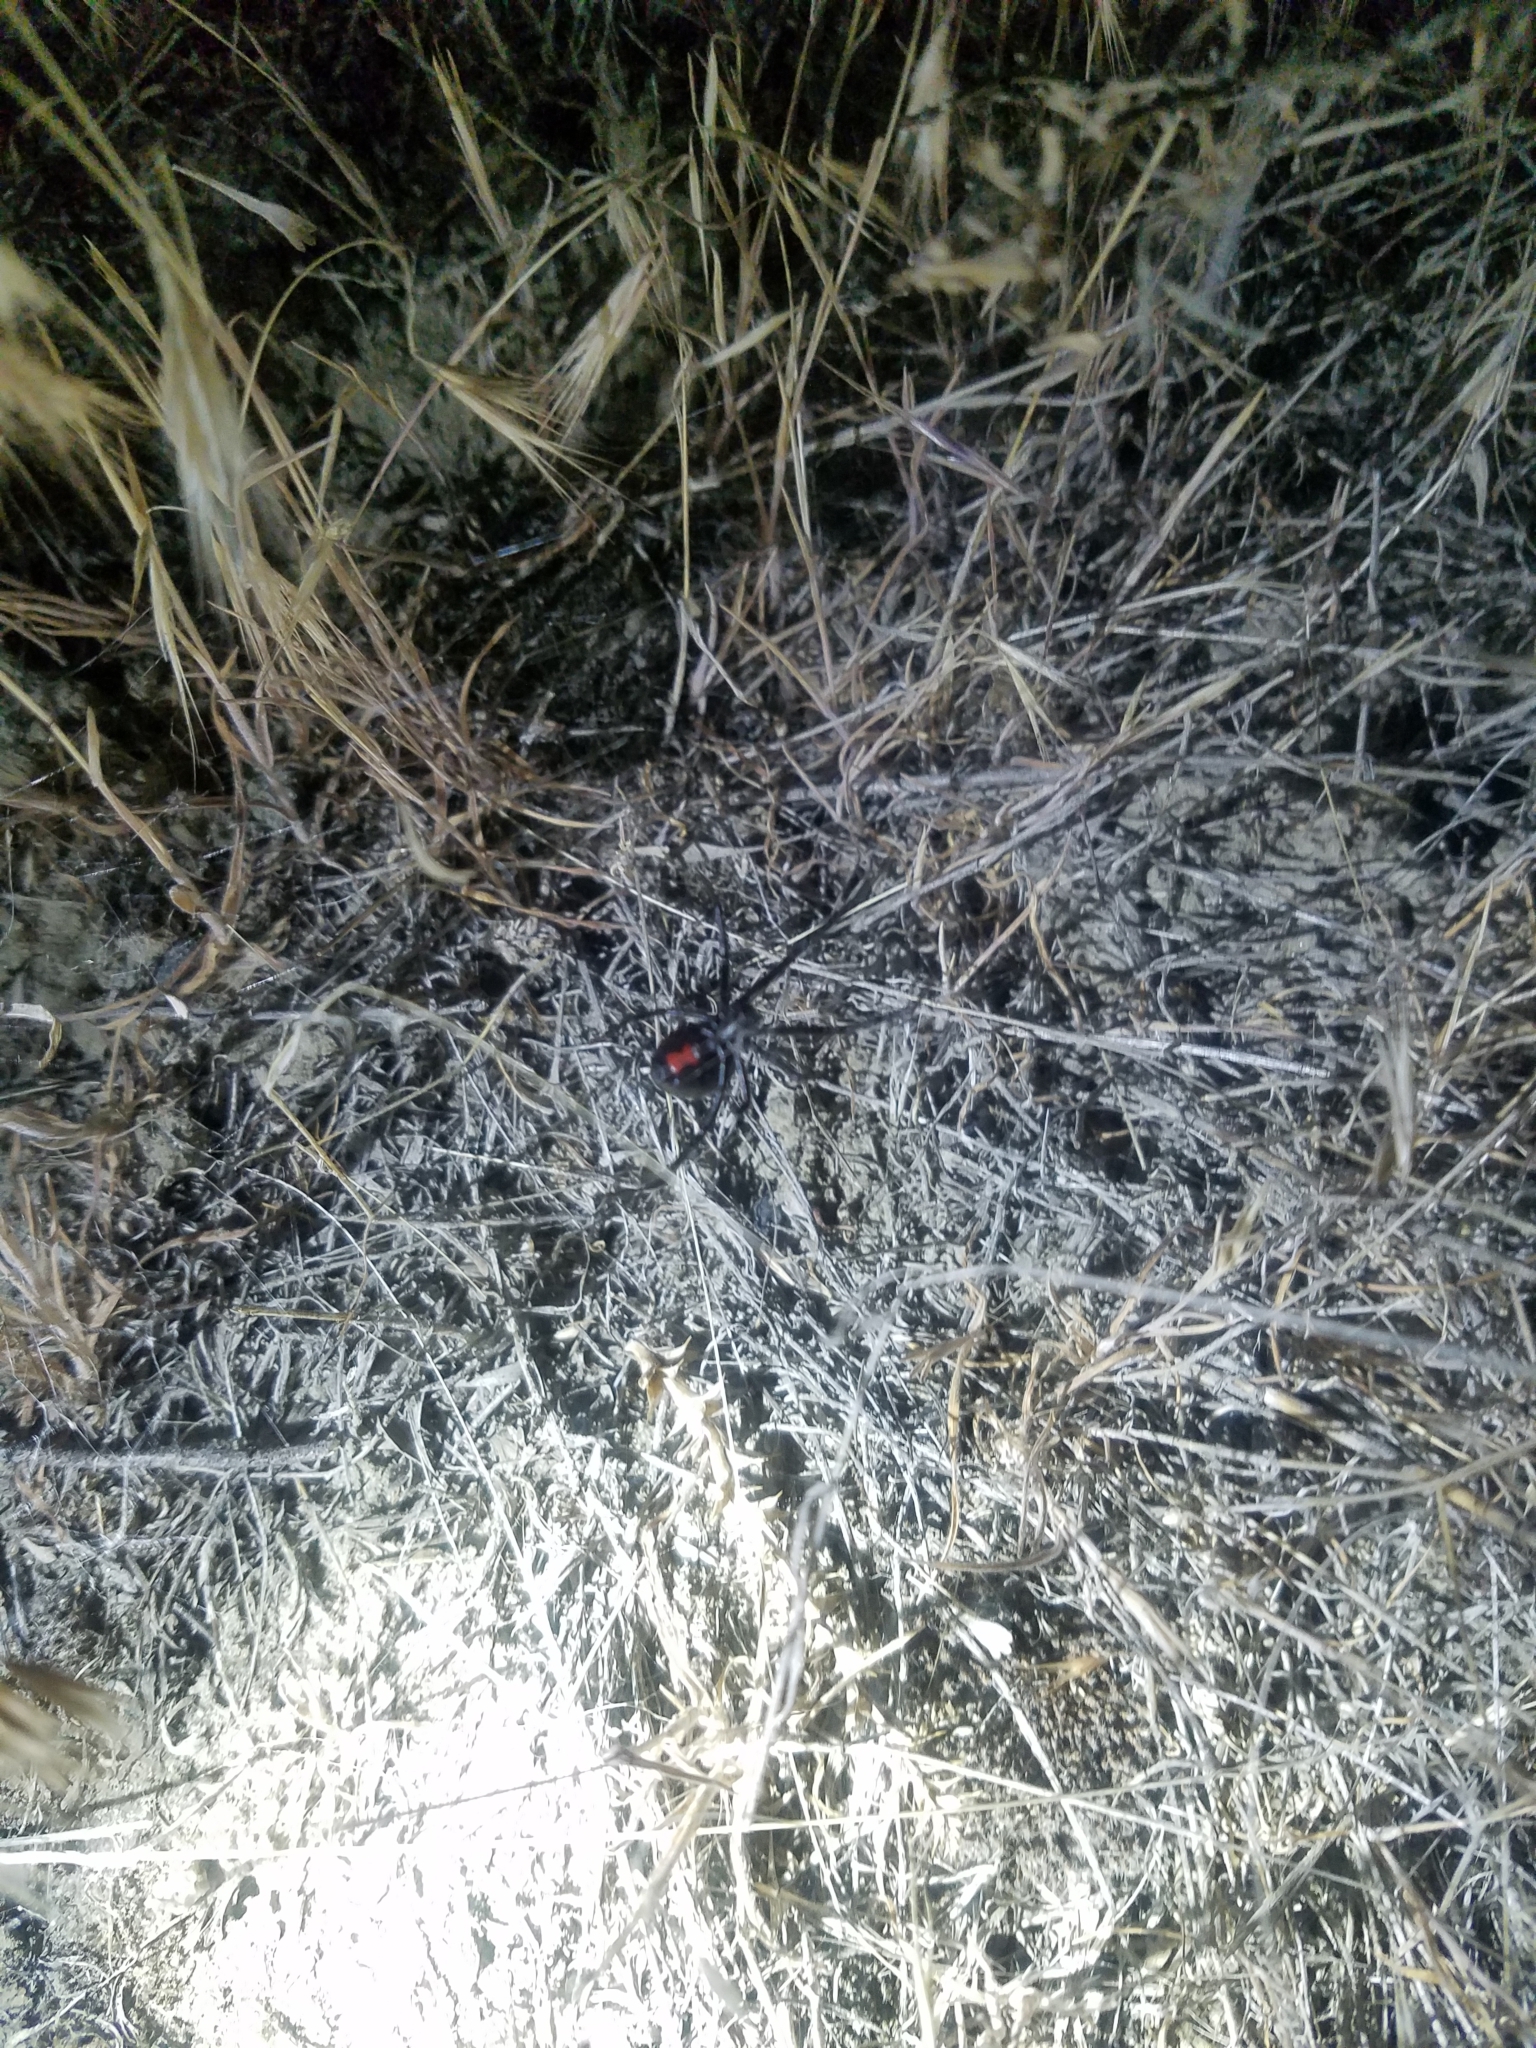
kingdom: Animalia
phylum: Arthropoda
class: Arachnida
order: Araneae
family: Theridiidae
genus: Latrodectus
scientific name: Latrodectus hesperus
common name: Western black widow
